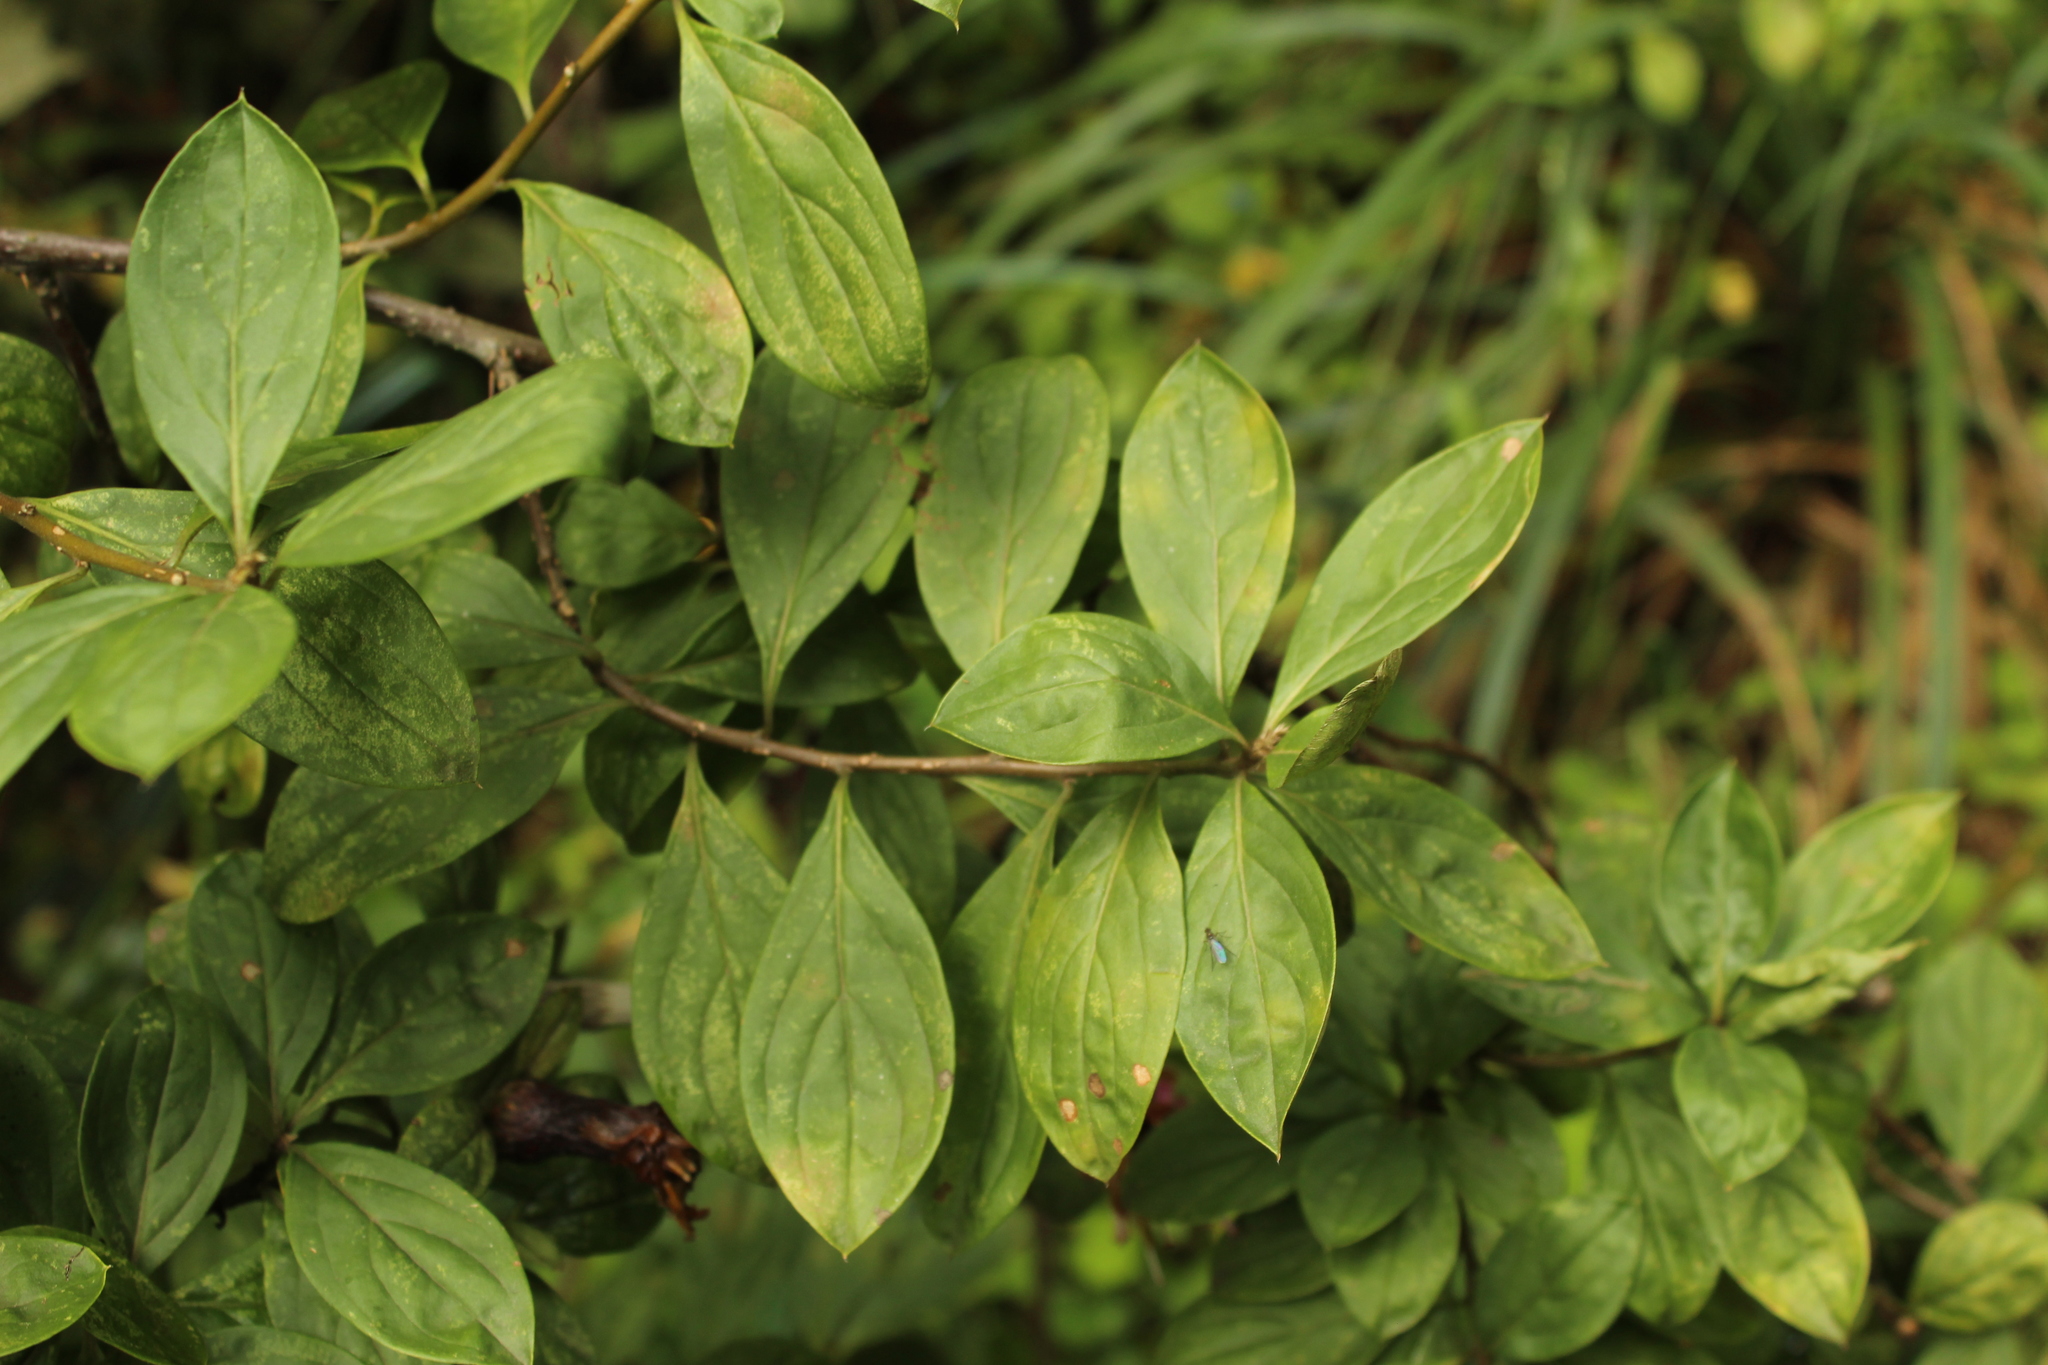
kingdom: Plantae
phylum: Tracheophyta
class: Magnoliopsida
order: Asterales
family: Asteraceae
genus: Barnadesia
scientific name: Barnadesia spinosa
